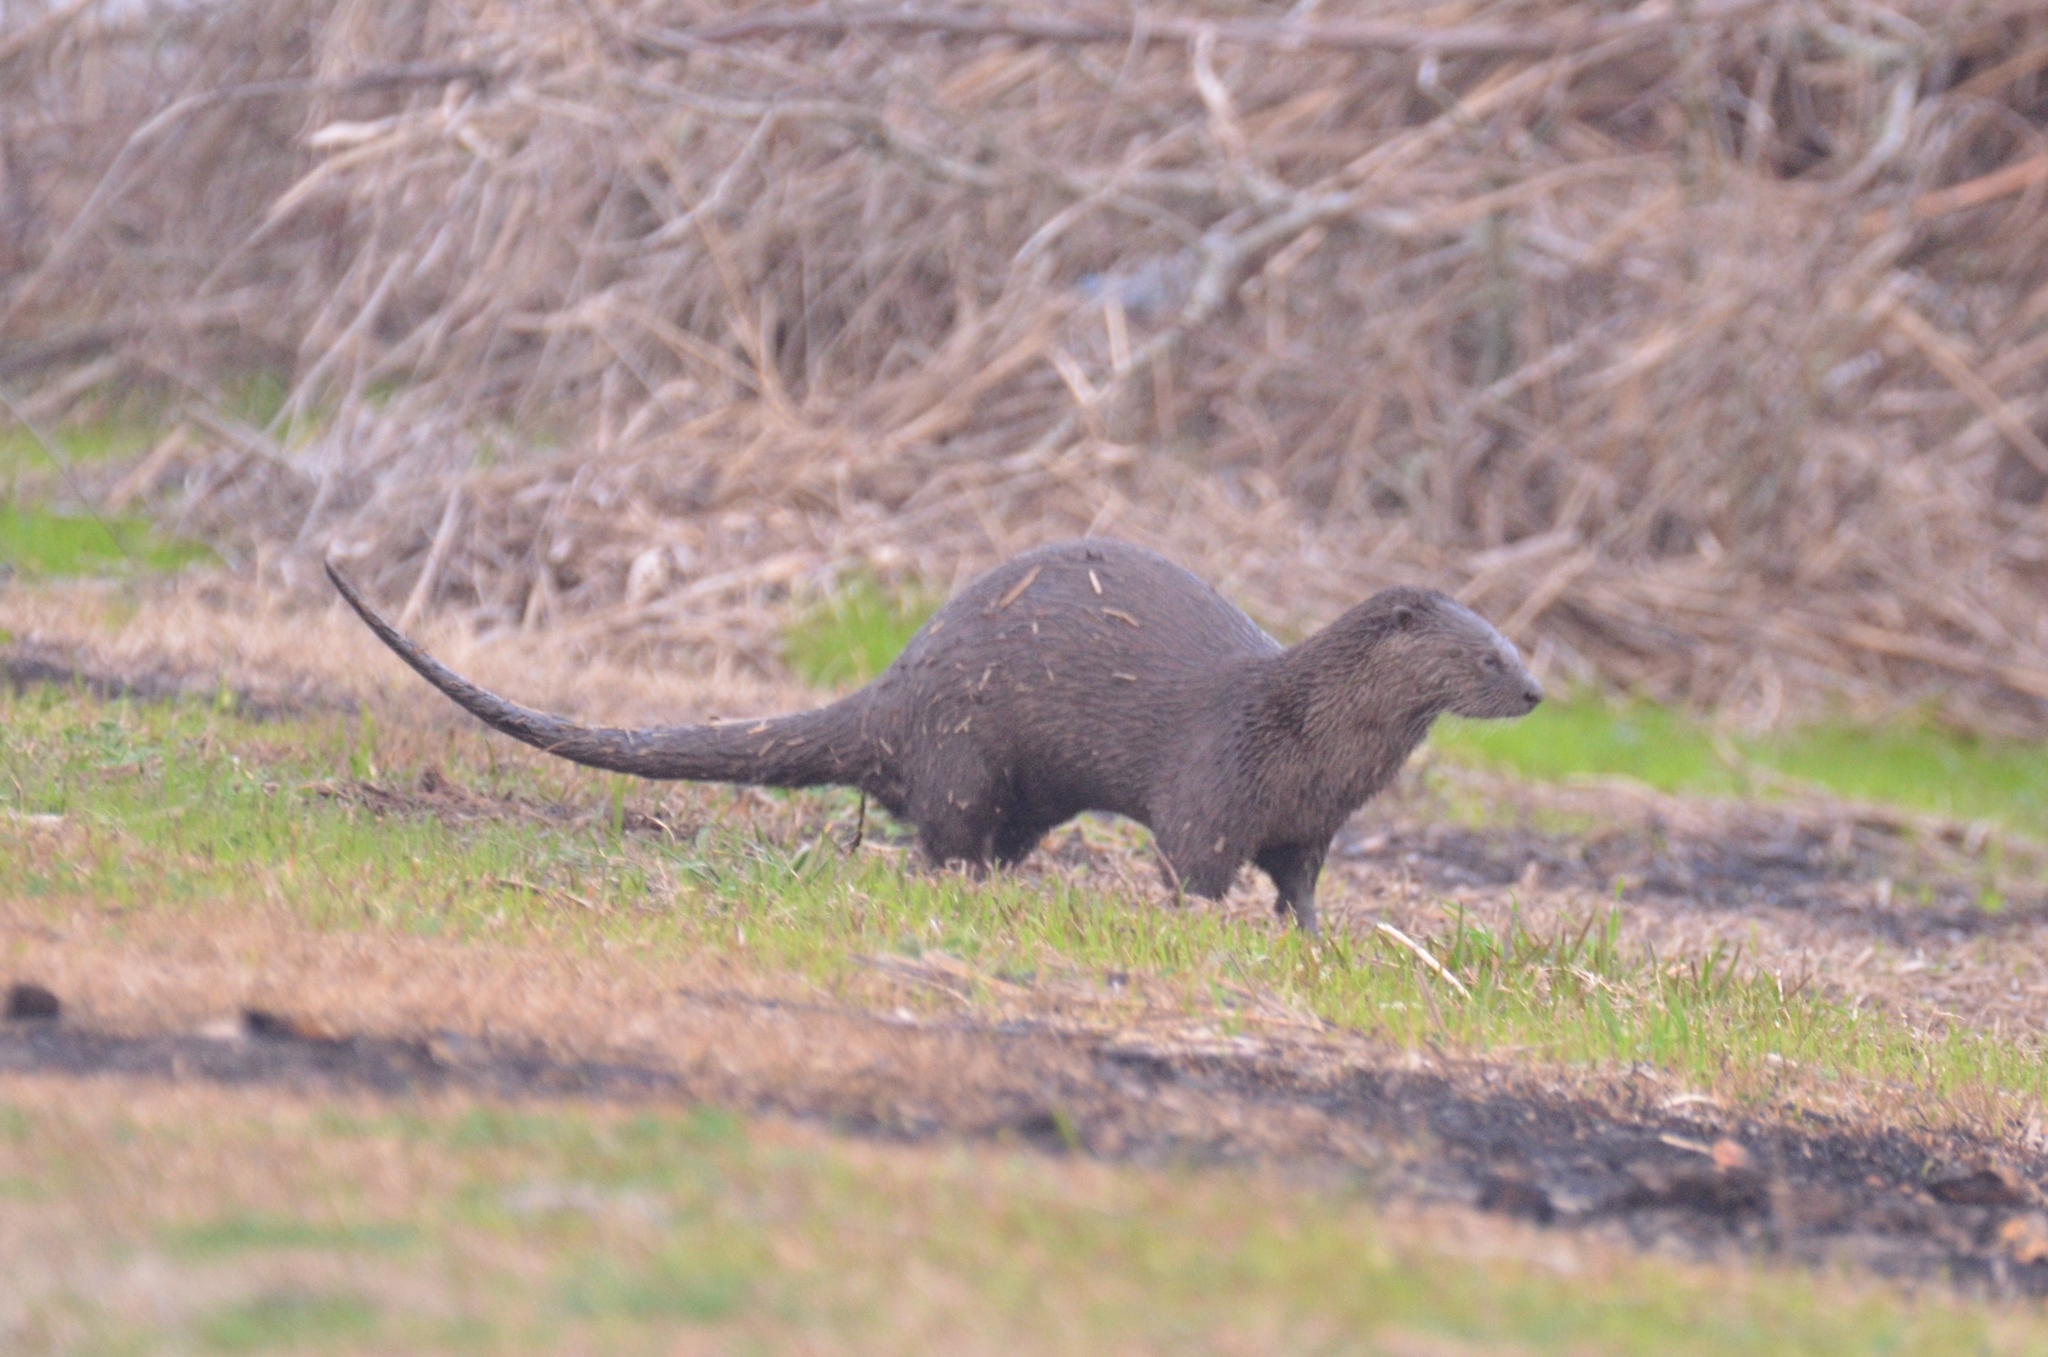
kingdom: Animalia
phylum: Chordata
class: Mammalia
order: Carnivora
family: Mustelidae
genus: Lontra
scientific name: Lontra canadensis
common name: North american river otter
